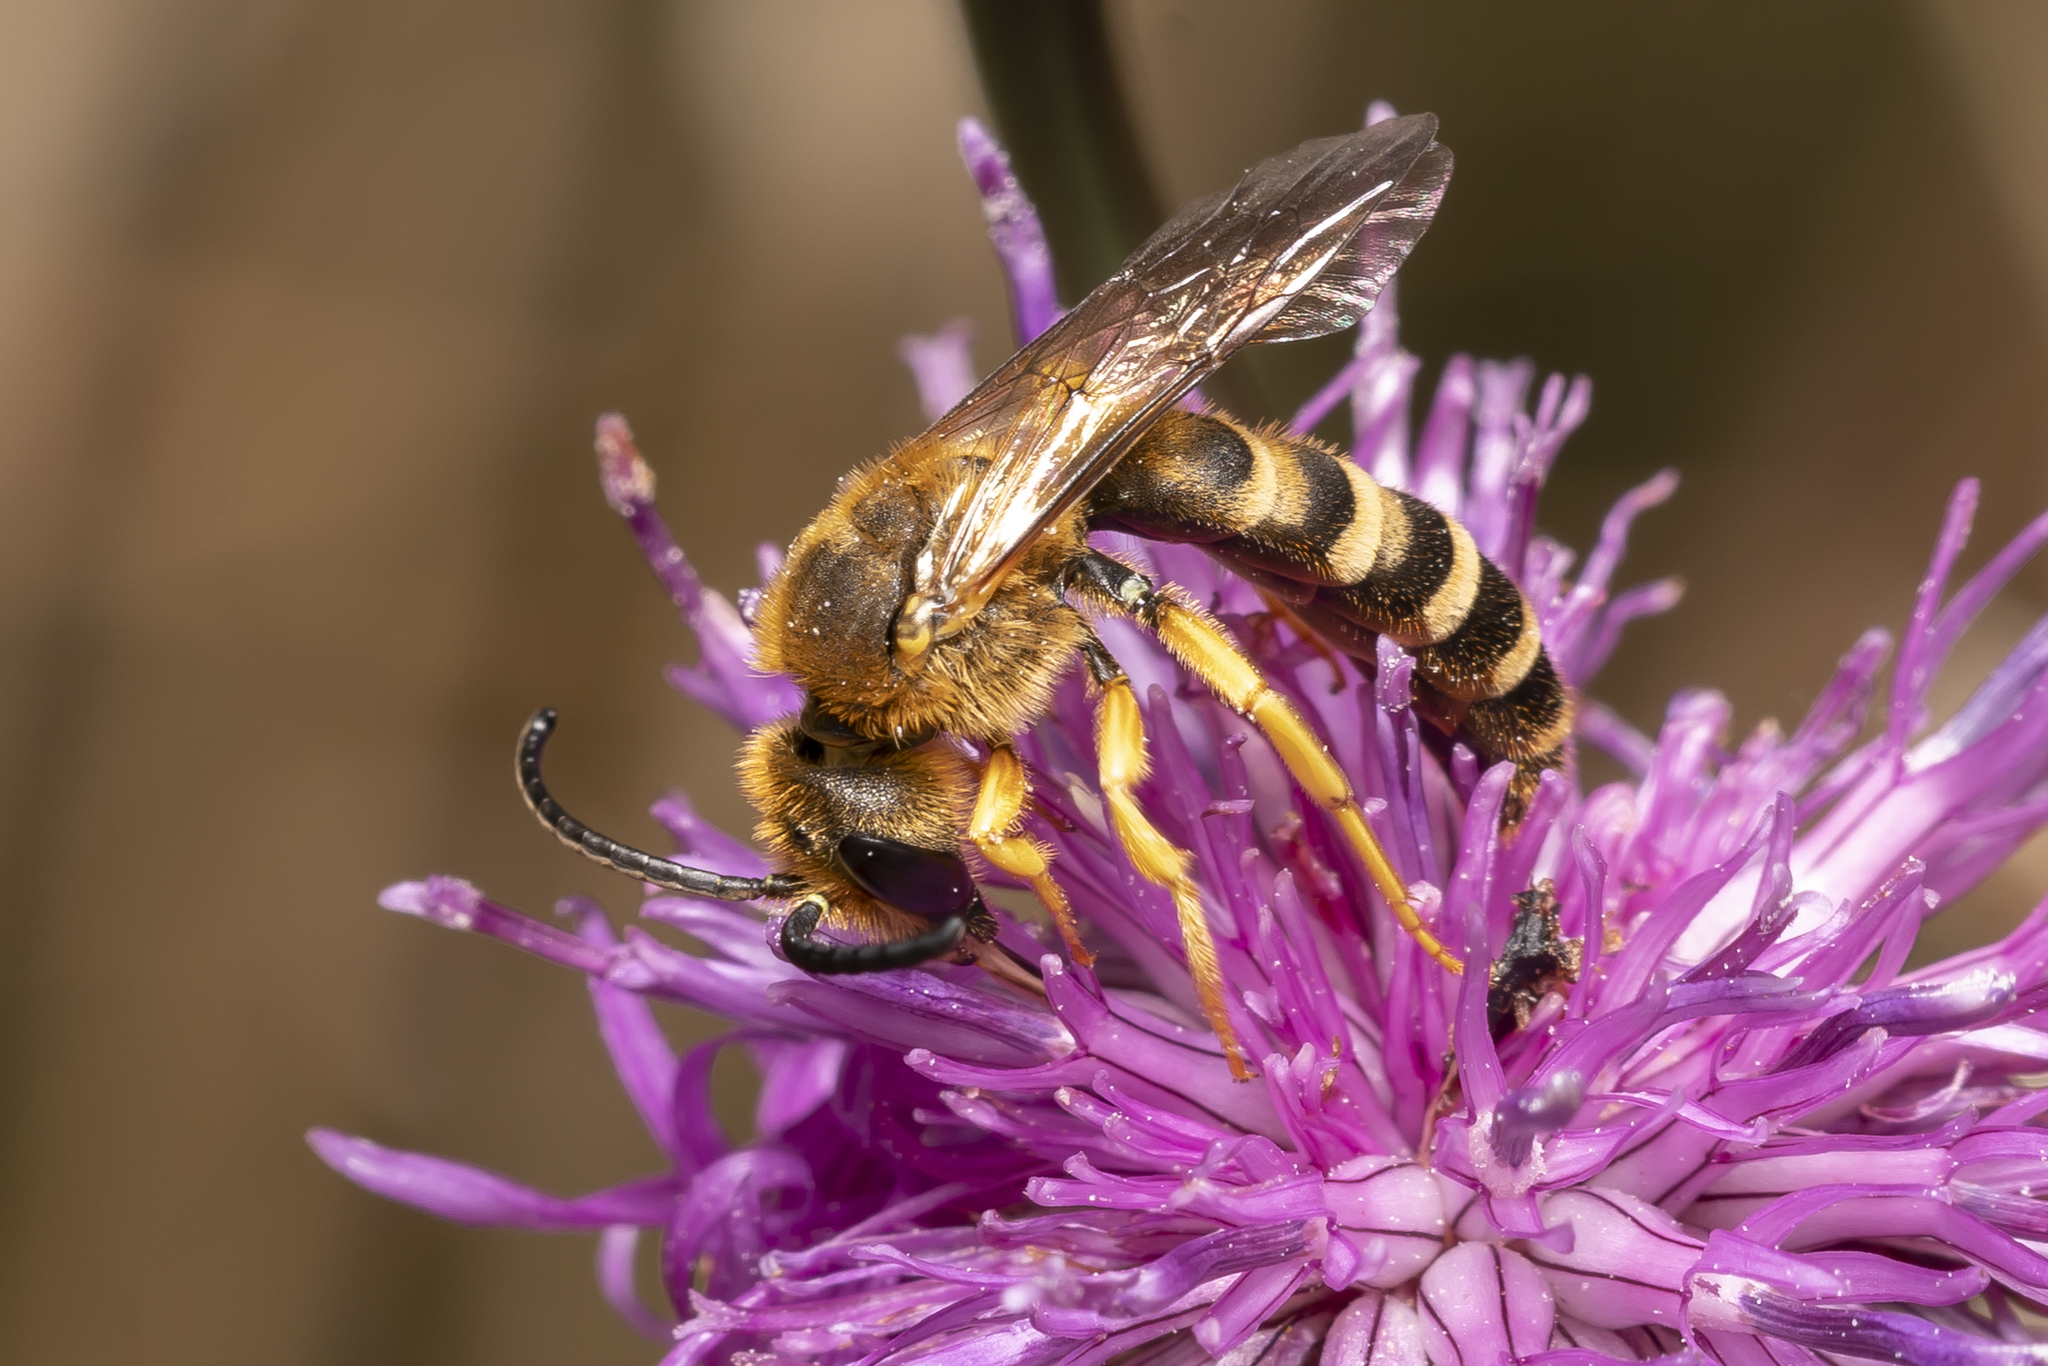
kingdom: Animalia
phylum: Arthropoda
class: Insecta
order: Hymenoptera
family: Halictidae
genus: Halictus
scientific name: Halictus scabiosae
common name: Great banded furrow bee
